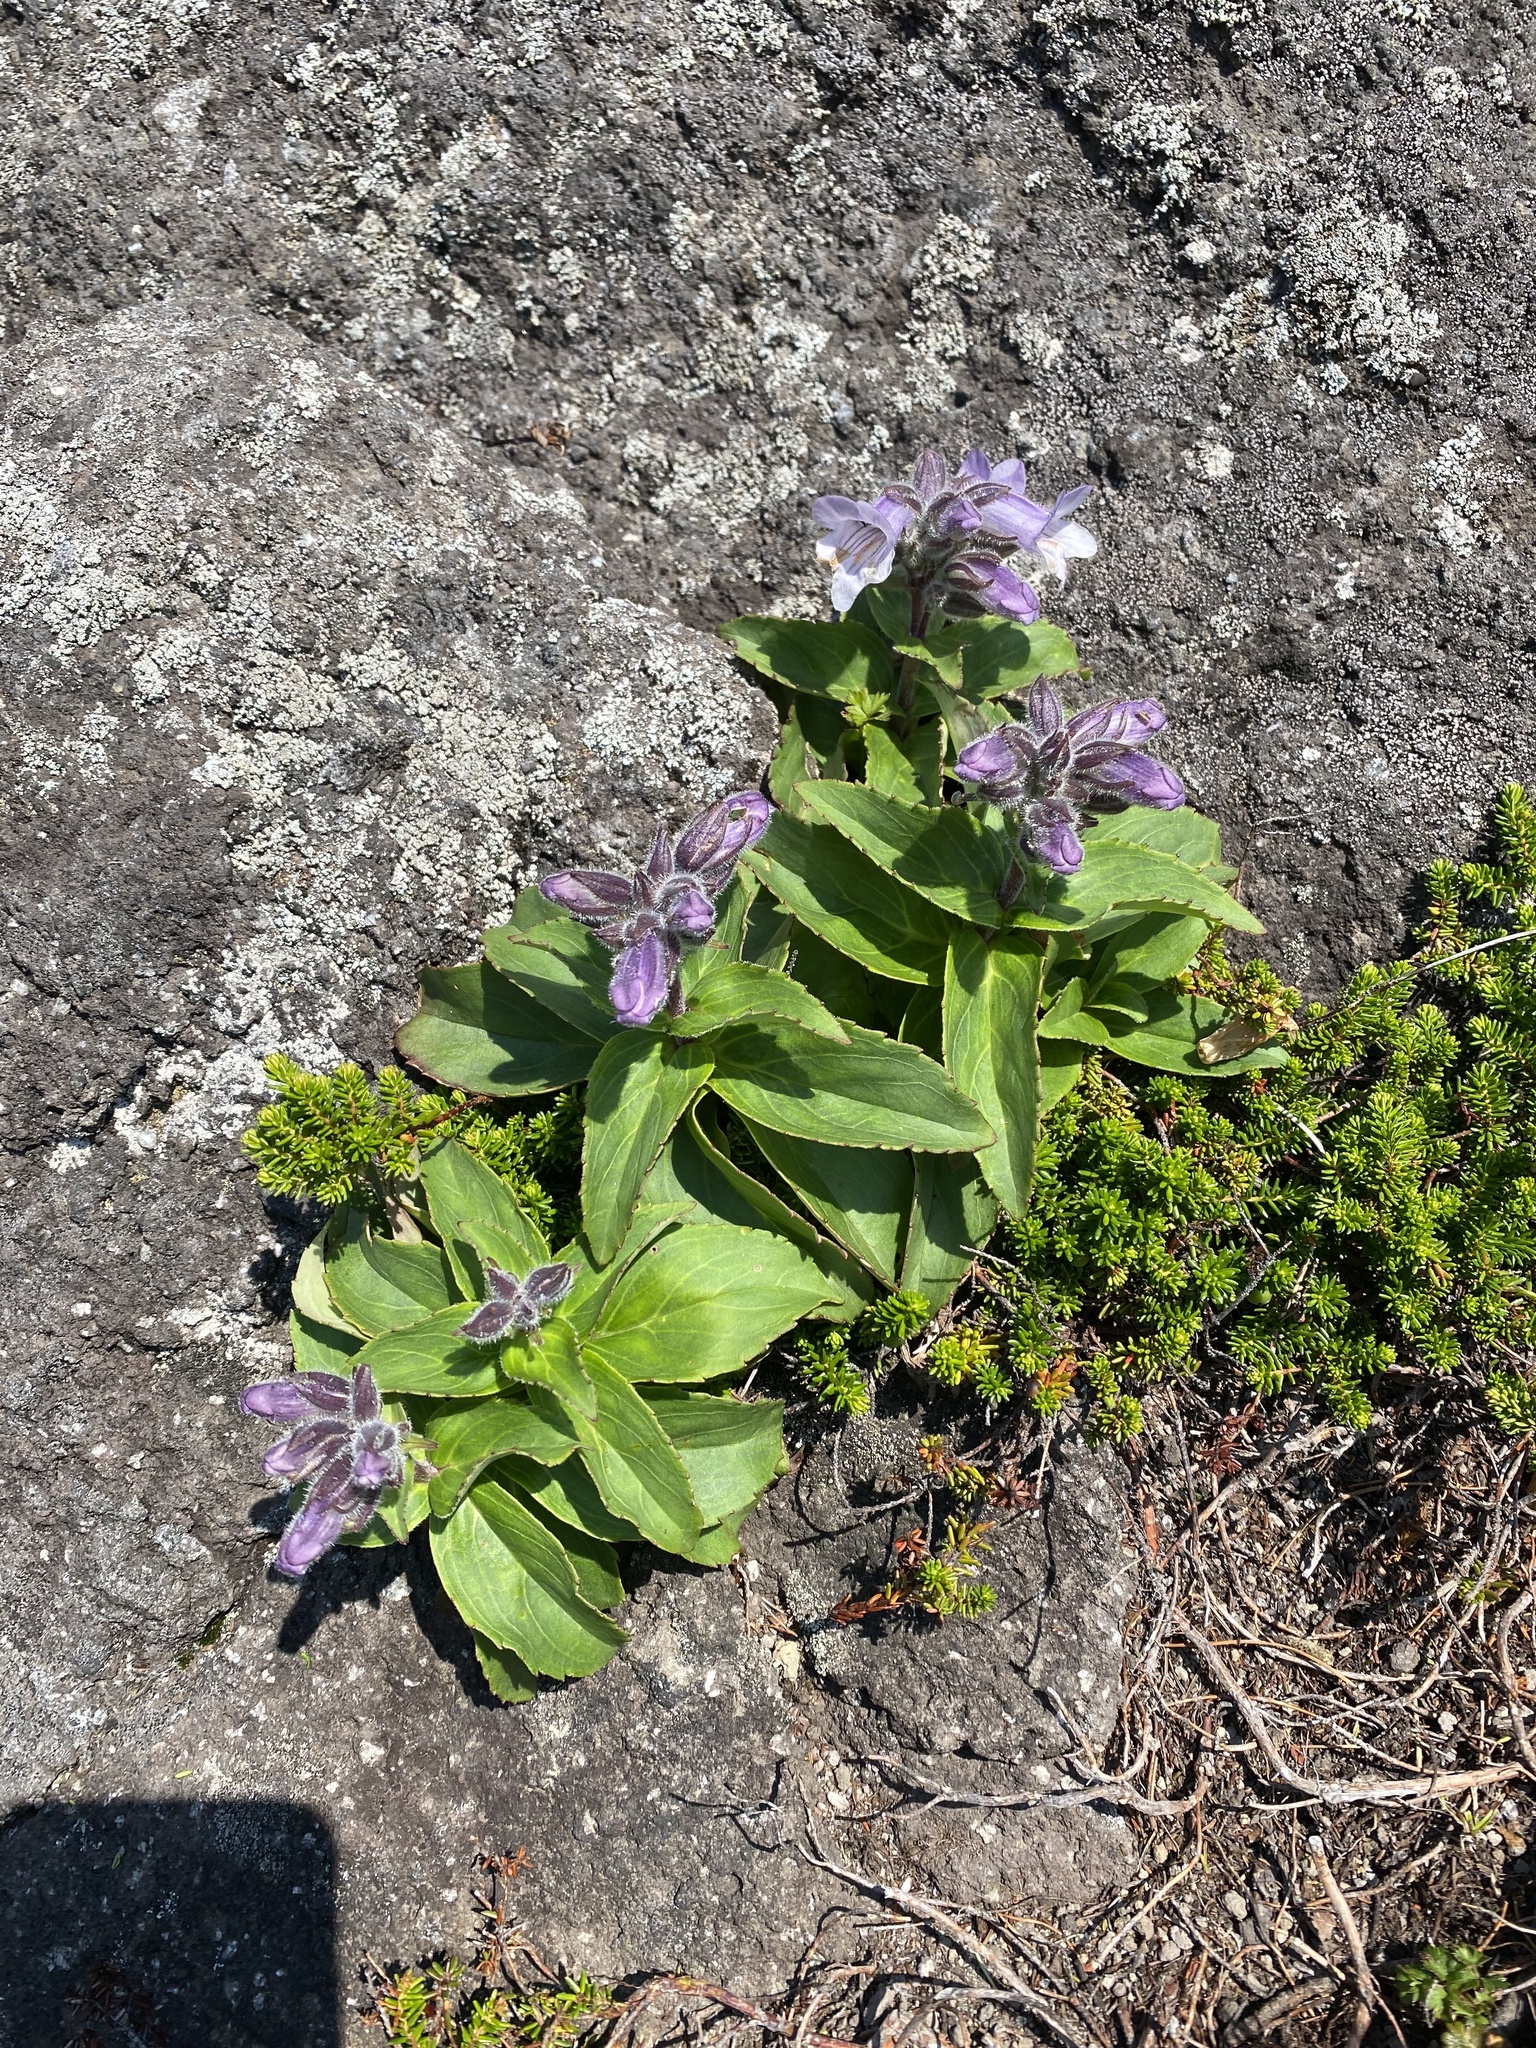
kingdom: Plantae
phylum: Tracheophyta
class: Magnoliopsida
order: Lamiales
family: Plantaginaceae
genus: Pennellianthus
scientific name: Pennellianthus frutescens
